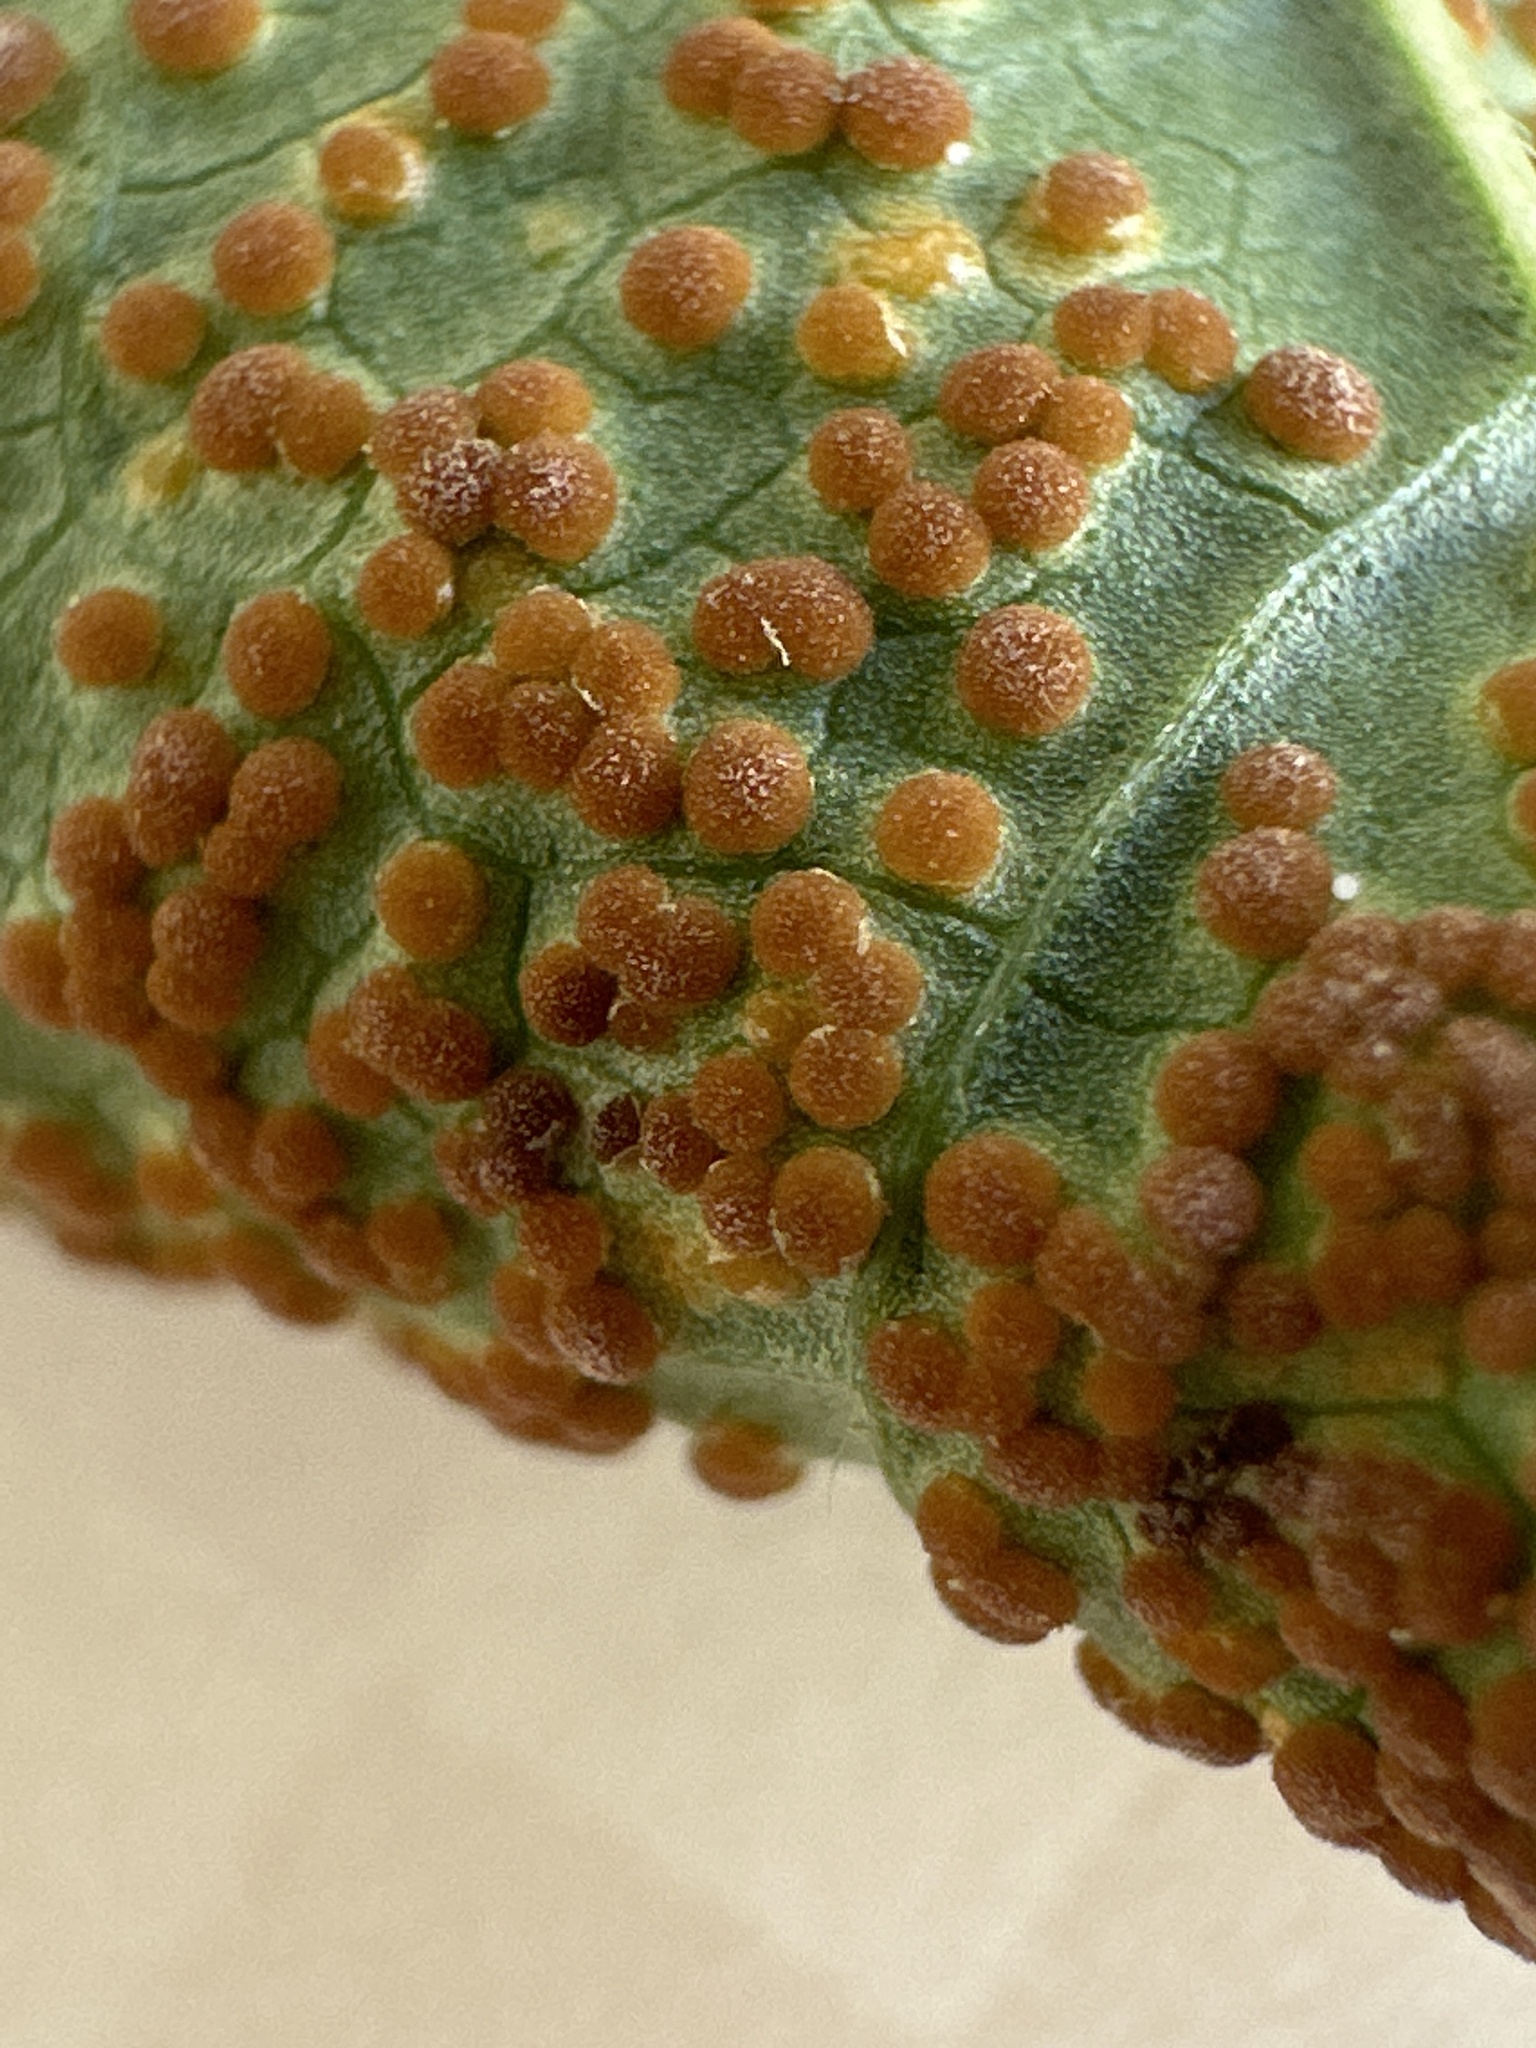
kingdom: Fungi
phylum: Basidiomycota
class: Pucciniomycetes
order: Pucciniales
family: Pucciniaceae
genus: Puccinia
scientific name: Puccinia malvacearum
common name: Hollyhock rust
